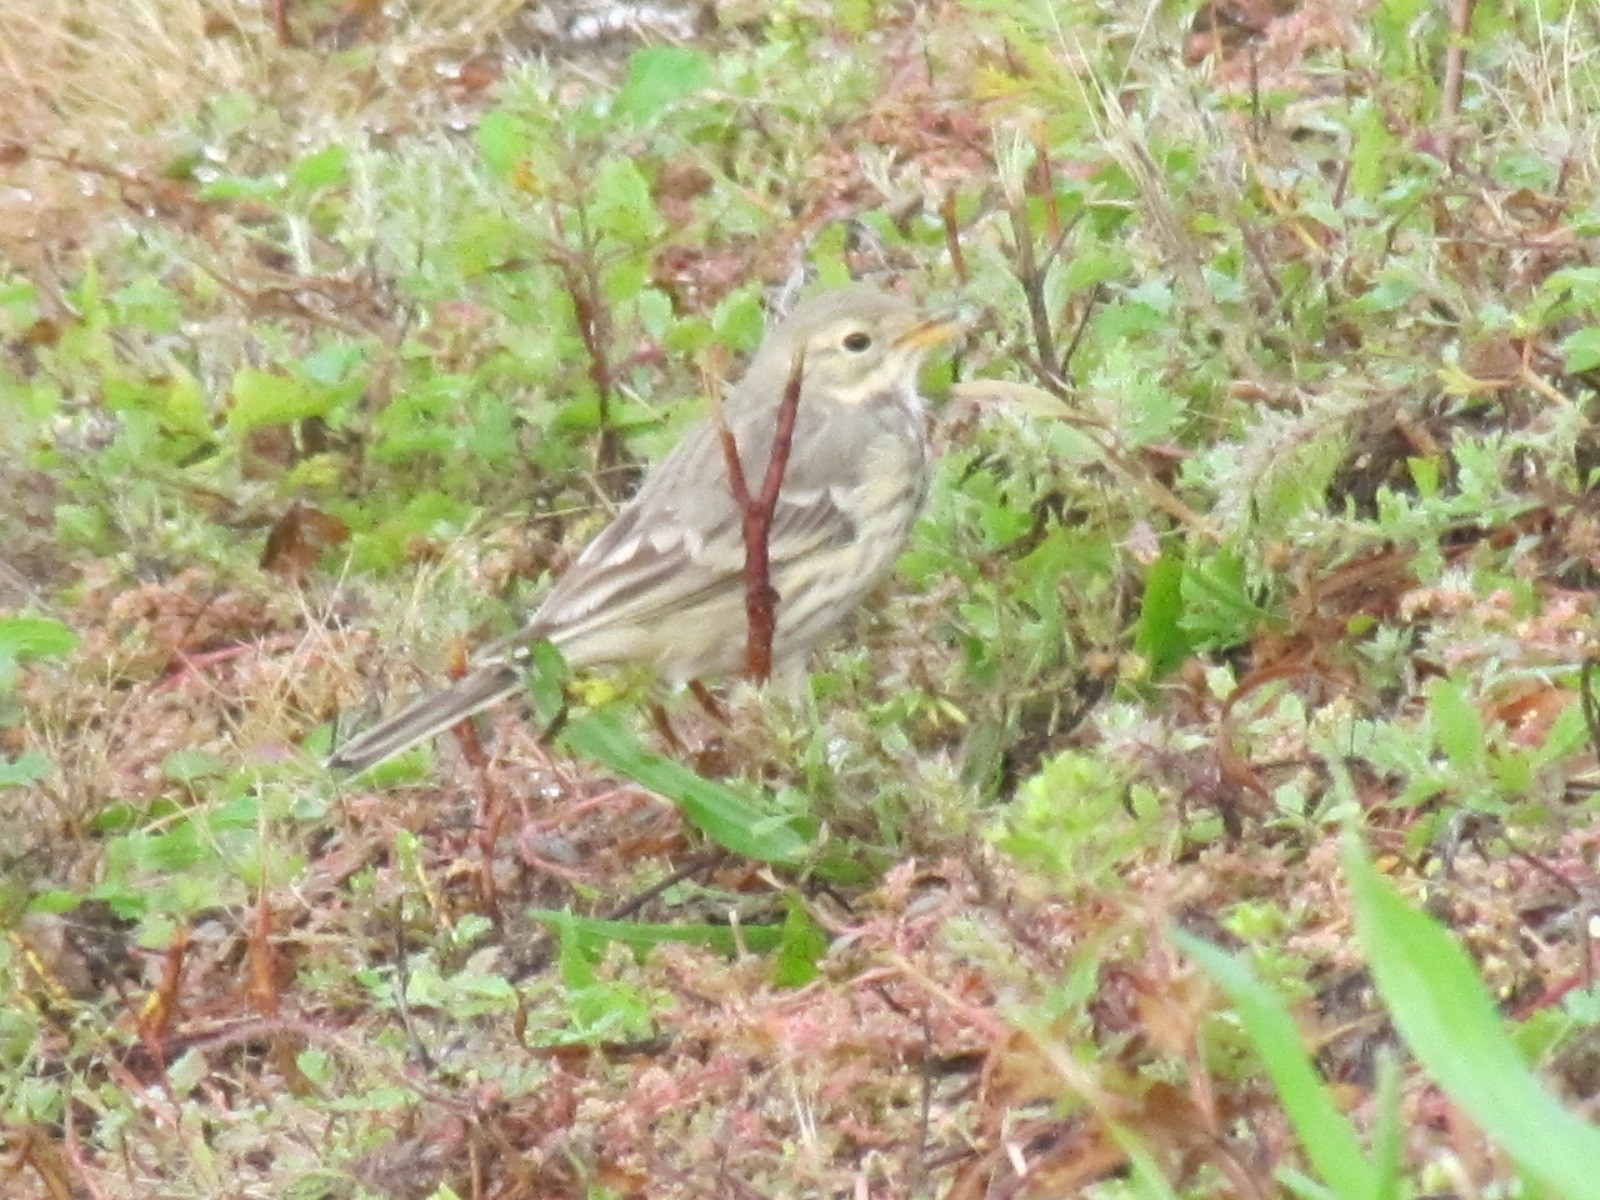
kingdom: Animalia
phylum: Chordata
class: Aves
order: Passeriformes
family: Motacillidae
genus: Anthus
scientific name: Anthus rubescens
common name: Buff-bellied pipit
